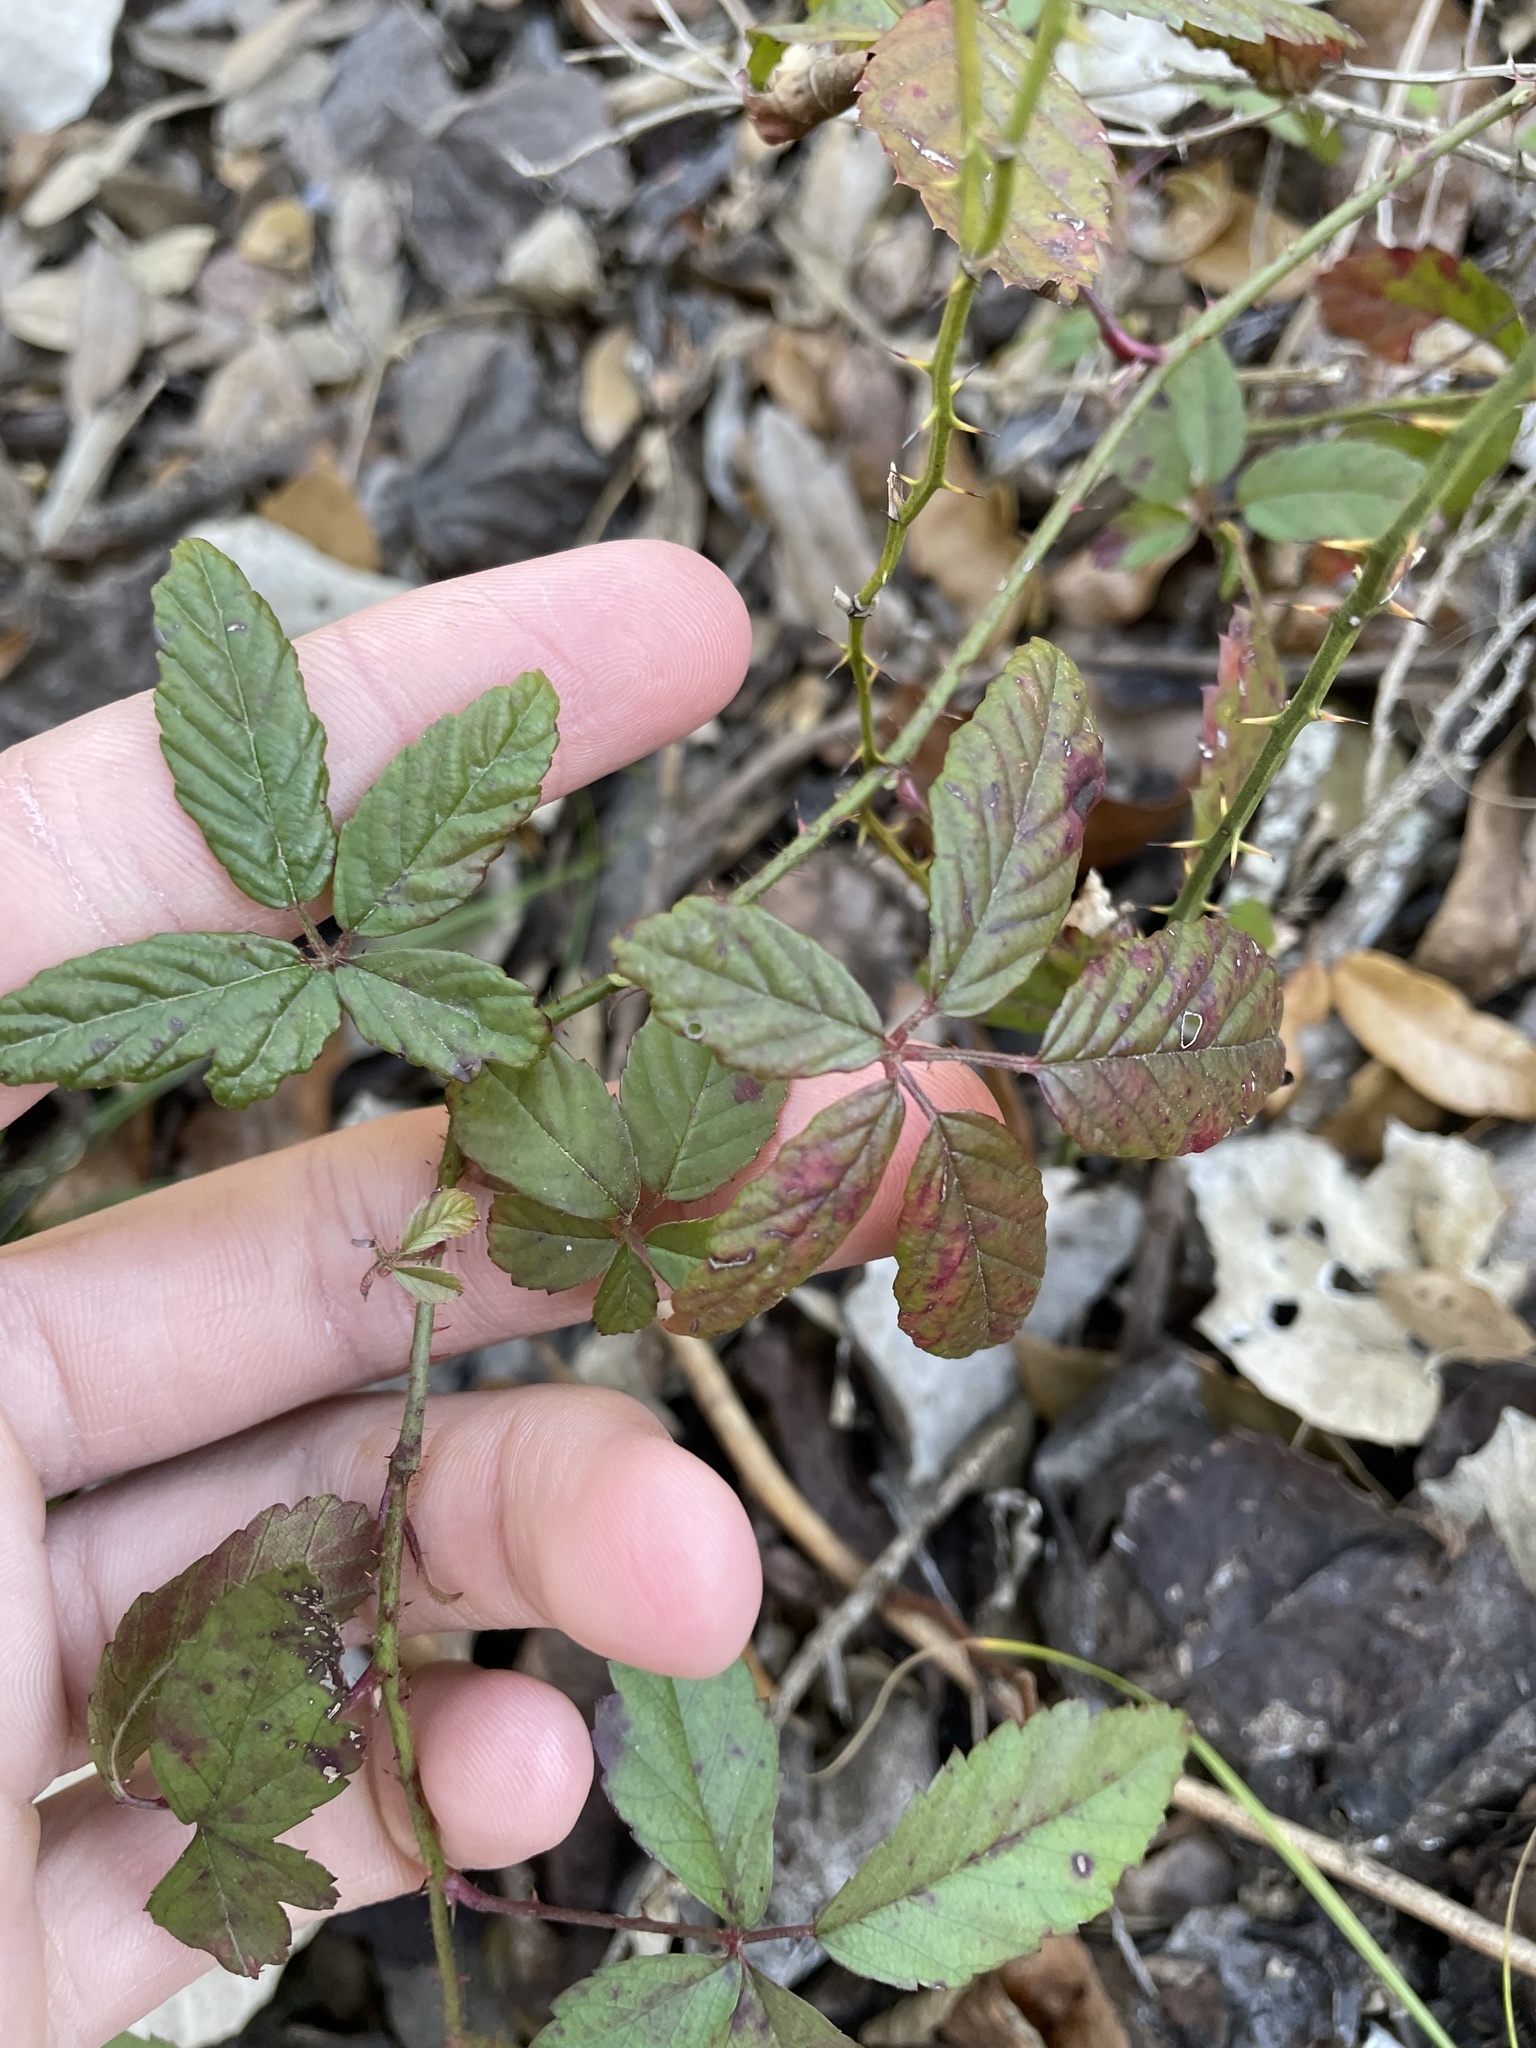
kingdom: Plantae
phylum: Tracheophyta
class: Magnoliopsida
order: Rosales
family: Rosaceae
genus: Rubus
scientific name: Rubus trivialis
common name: Southern dewberry
